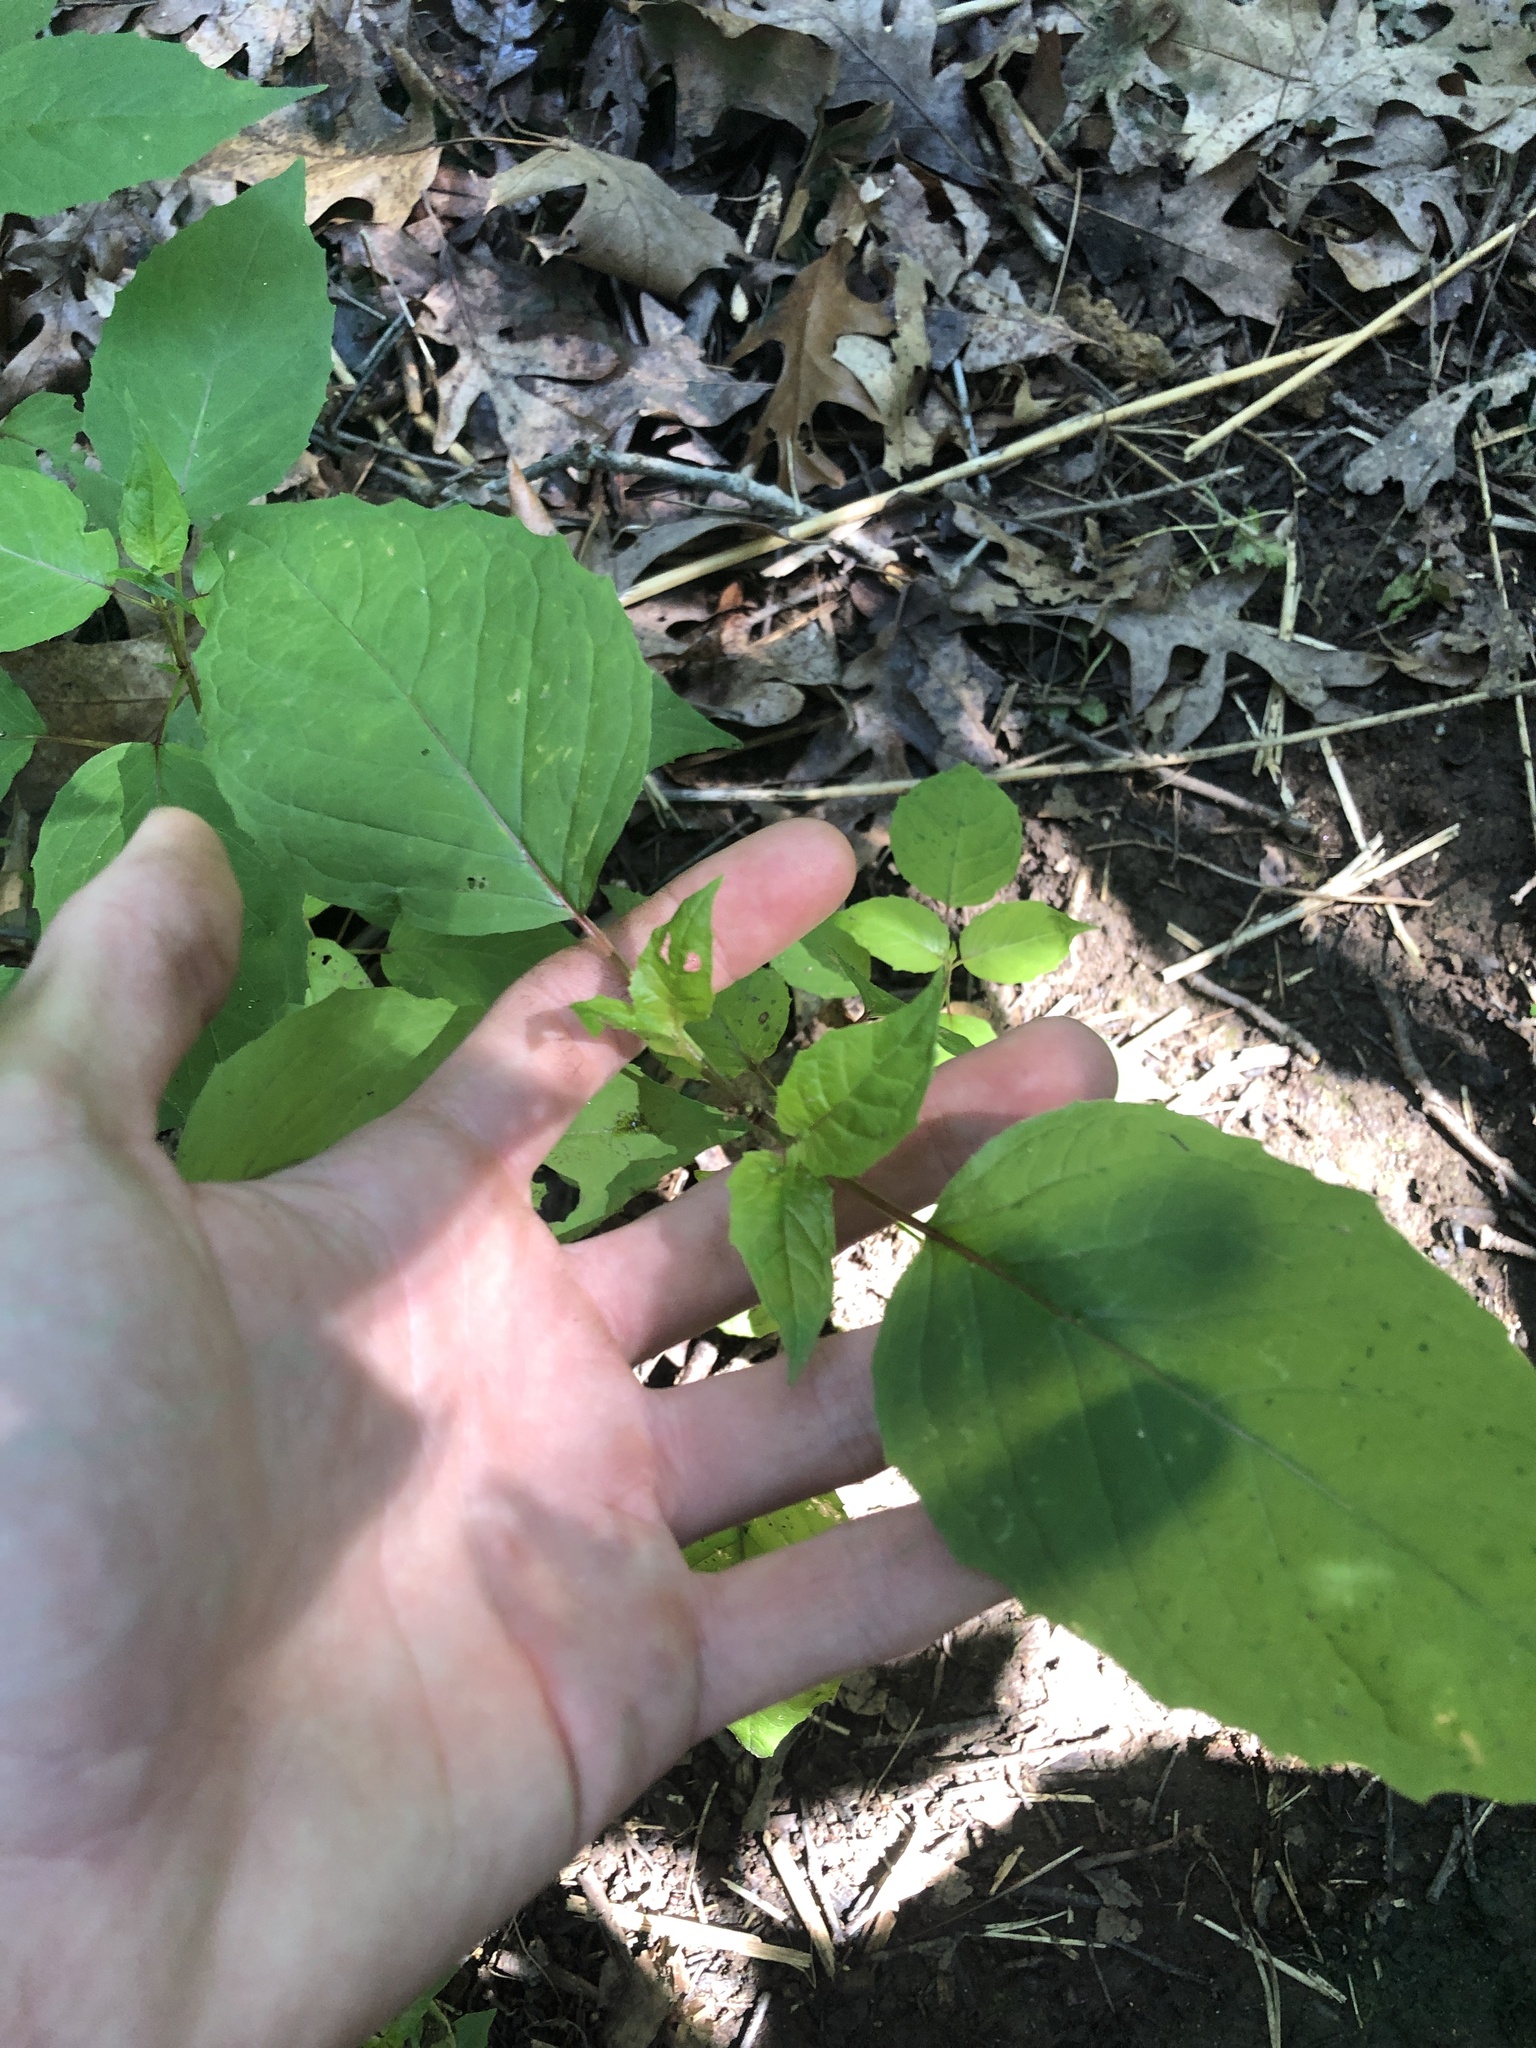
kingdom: Plantae
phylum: Tracheophyta
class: Magnoliopsida
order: Myrtales
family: Onagraceae
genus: Circaea
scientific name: Circaea canadensis
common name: Broad-leaved enchanter's nightshade
